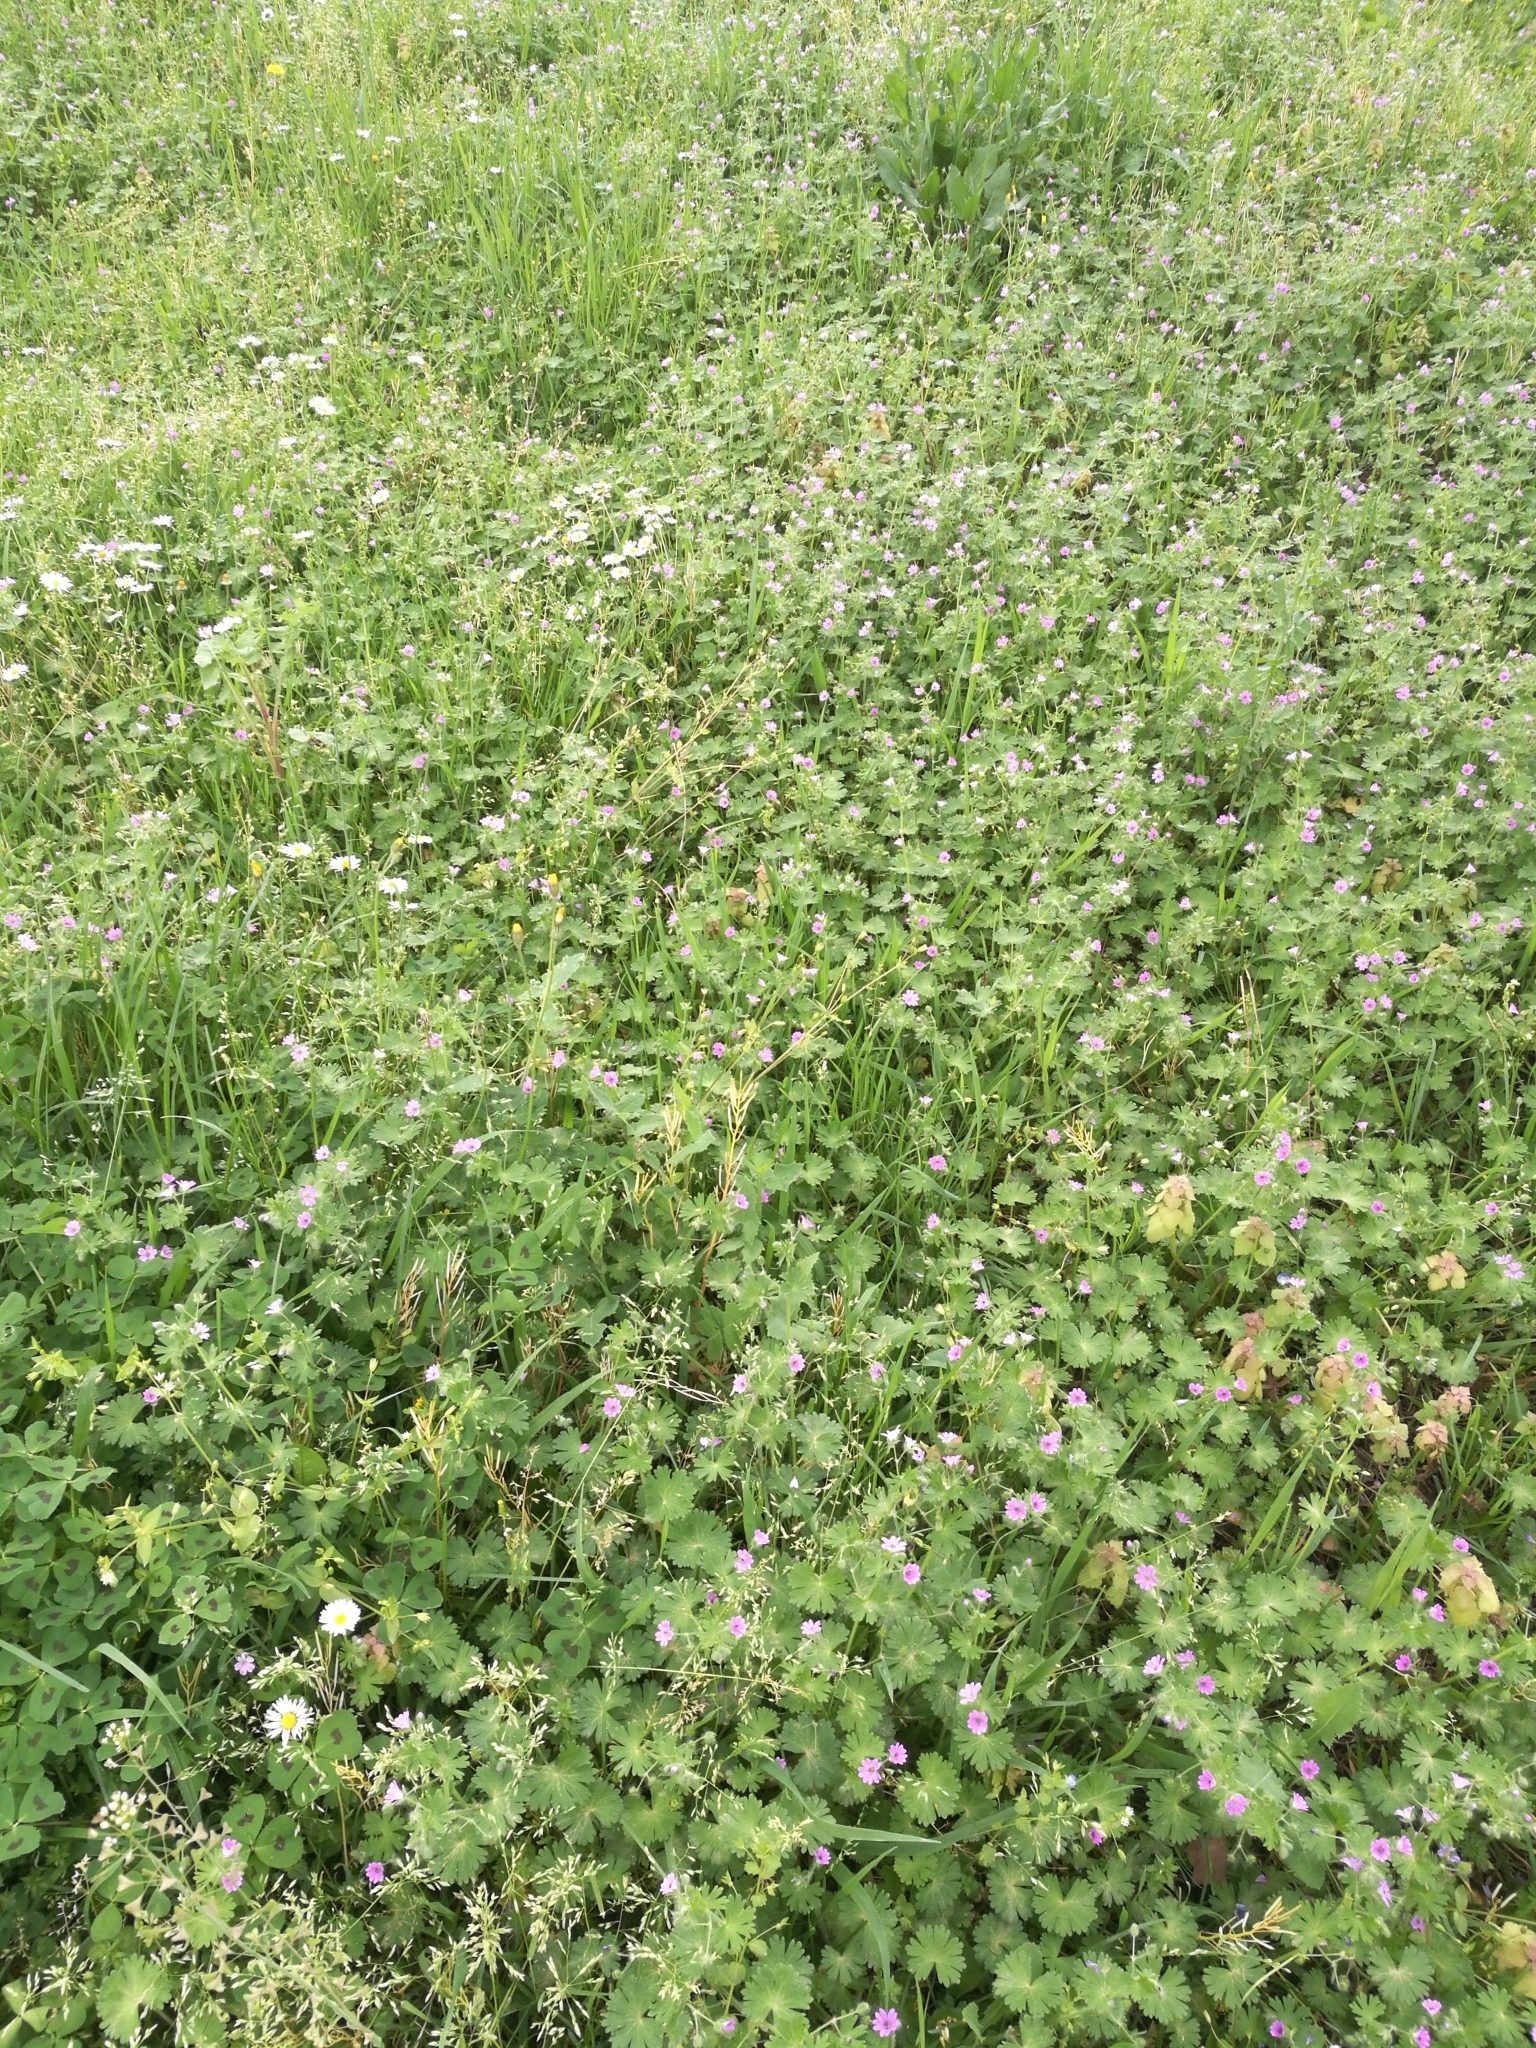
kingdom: Plantae
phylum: Tracheophyta
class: Magnoliopsida
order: Geraniales
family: Geraniaceae
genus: Geranium
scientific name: Geranium molle
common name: Dove's-foot crane's-bill
